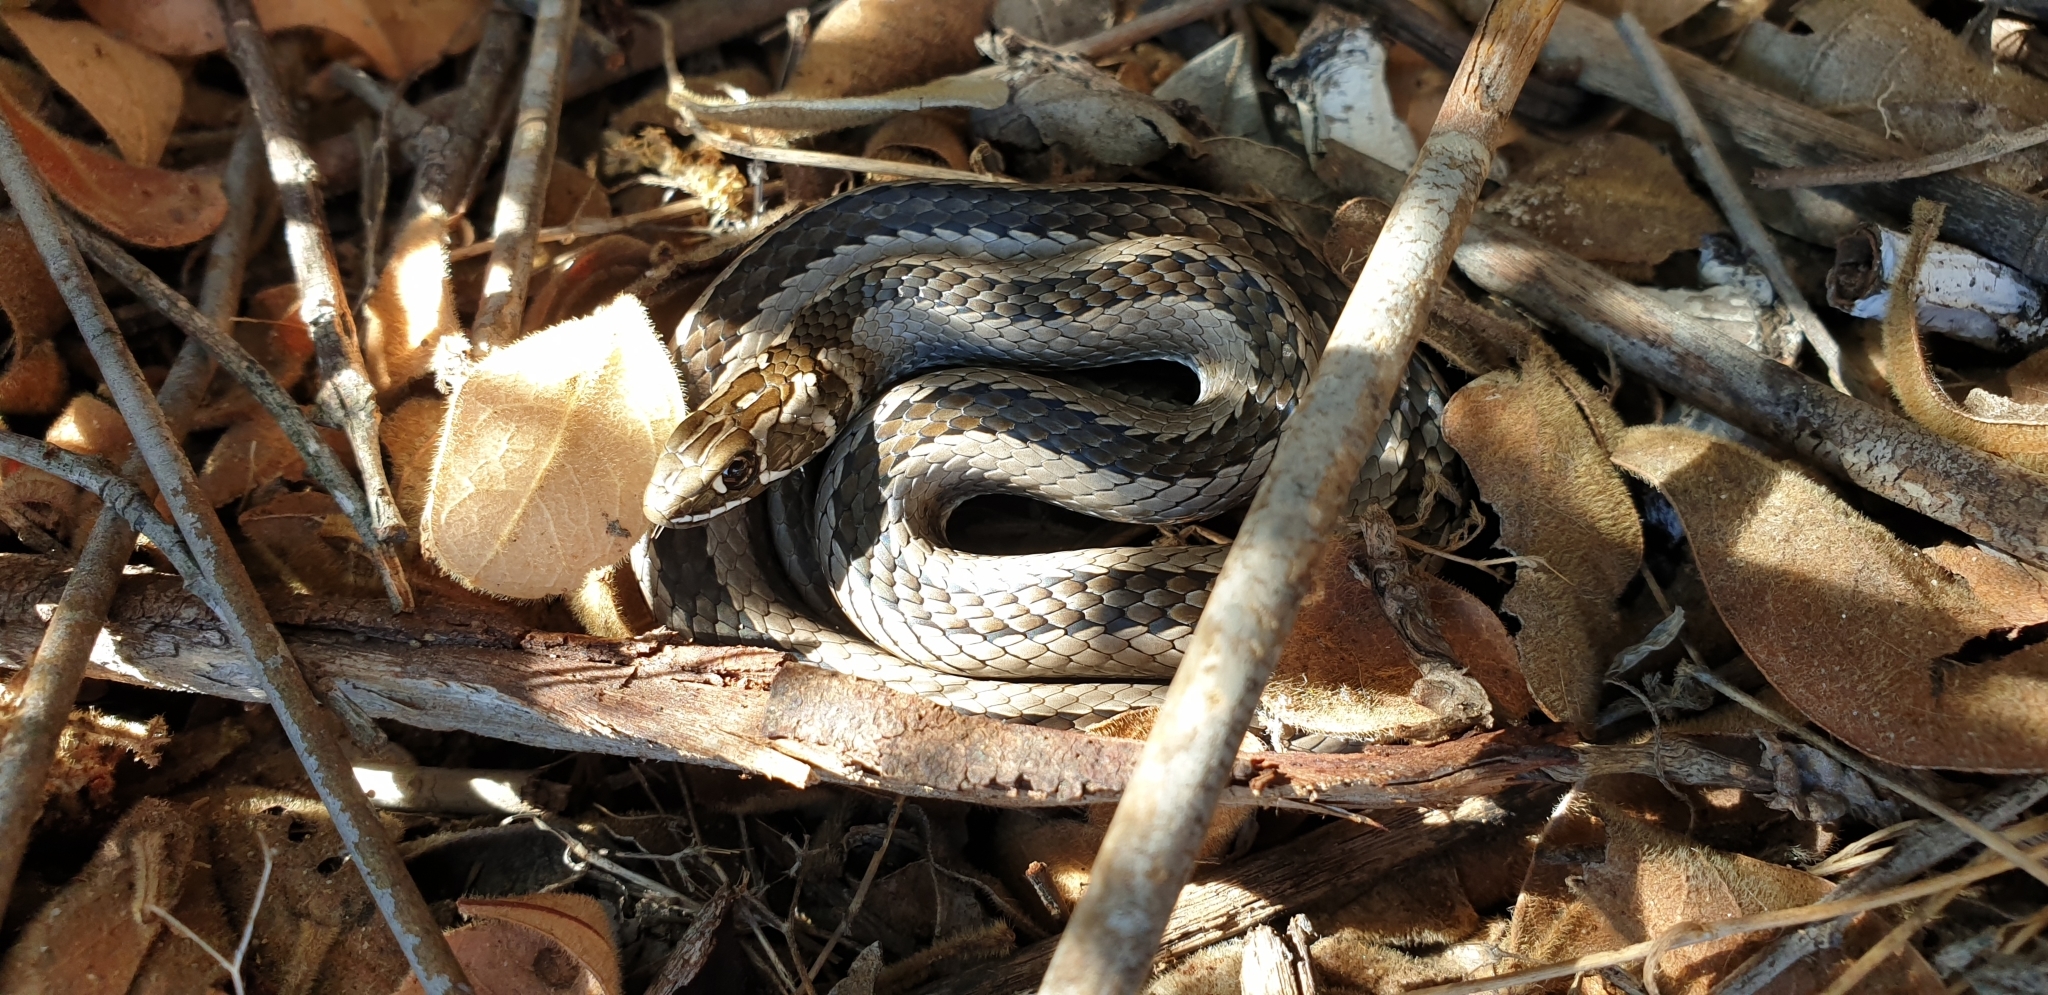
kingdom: Animalia
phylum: Chordata
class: Squamata
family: Psammophiidae
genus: Psammophis
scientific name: Psammophis crucifer
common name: Cross-marked grass snake
